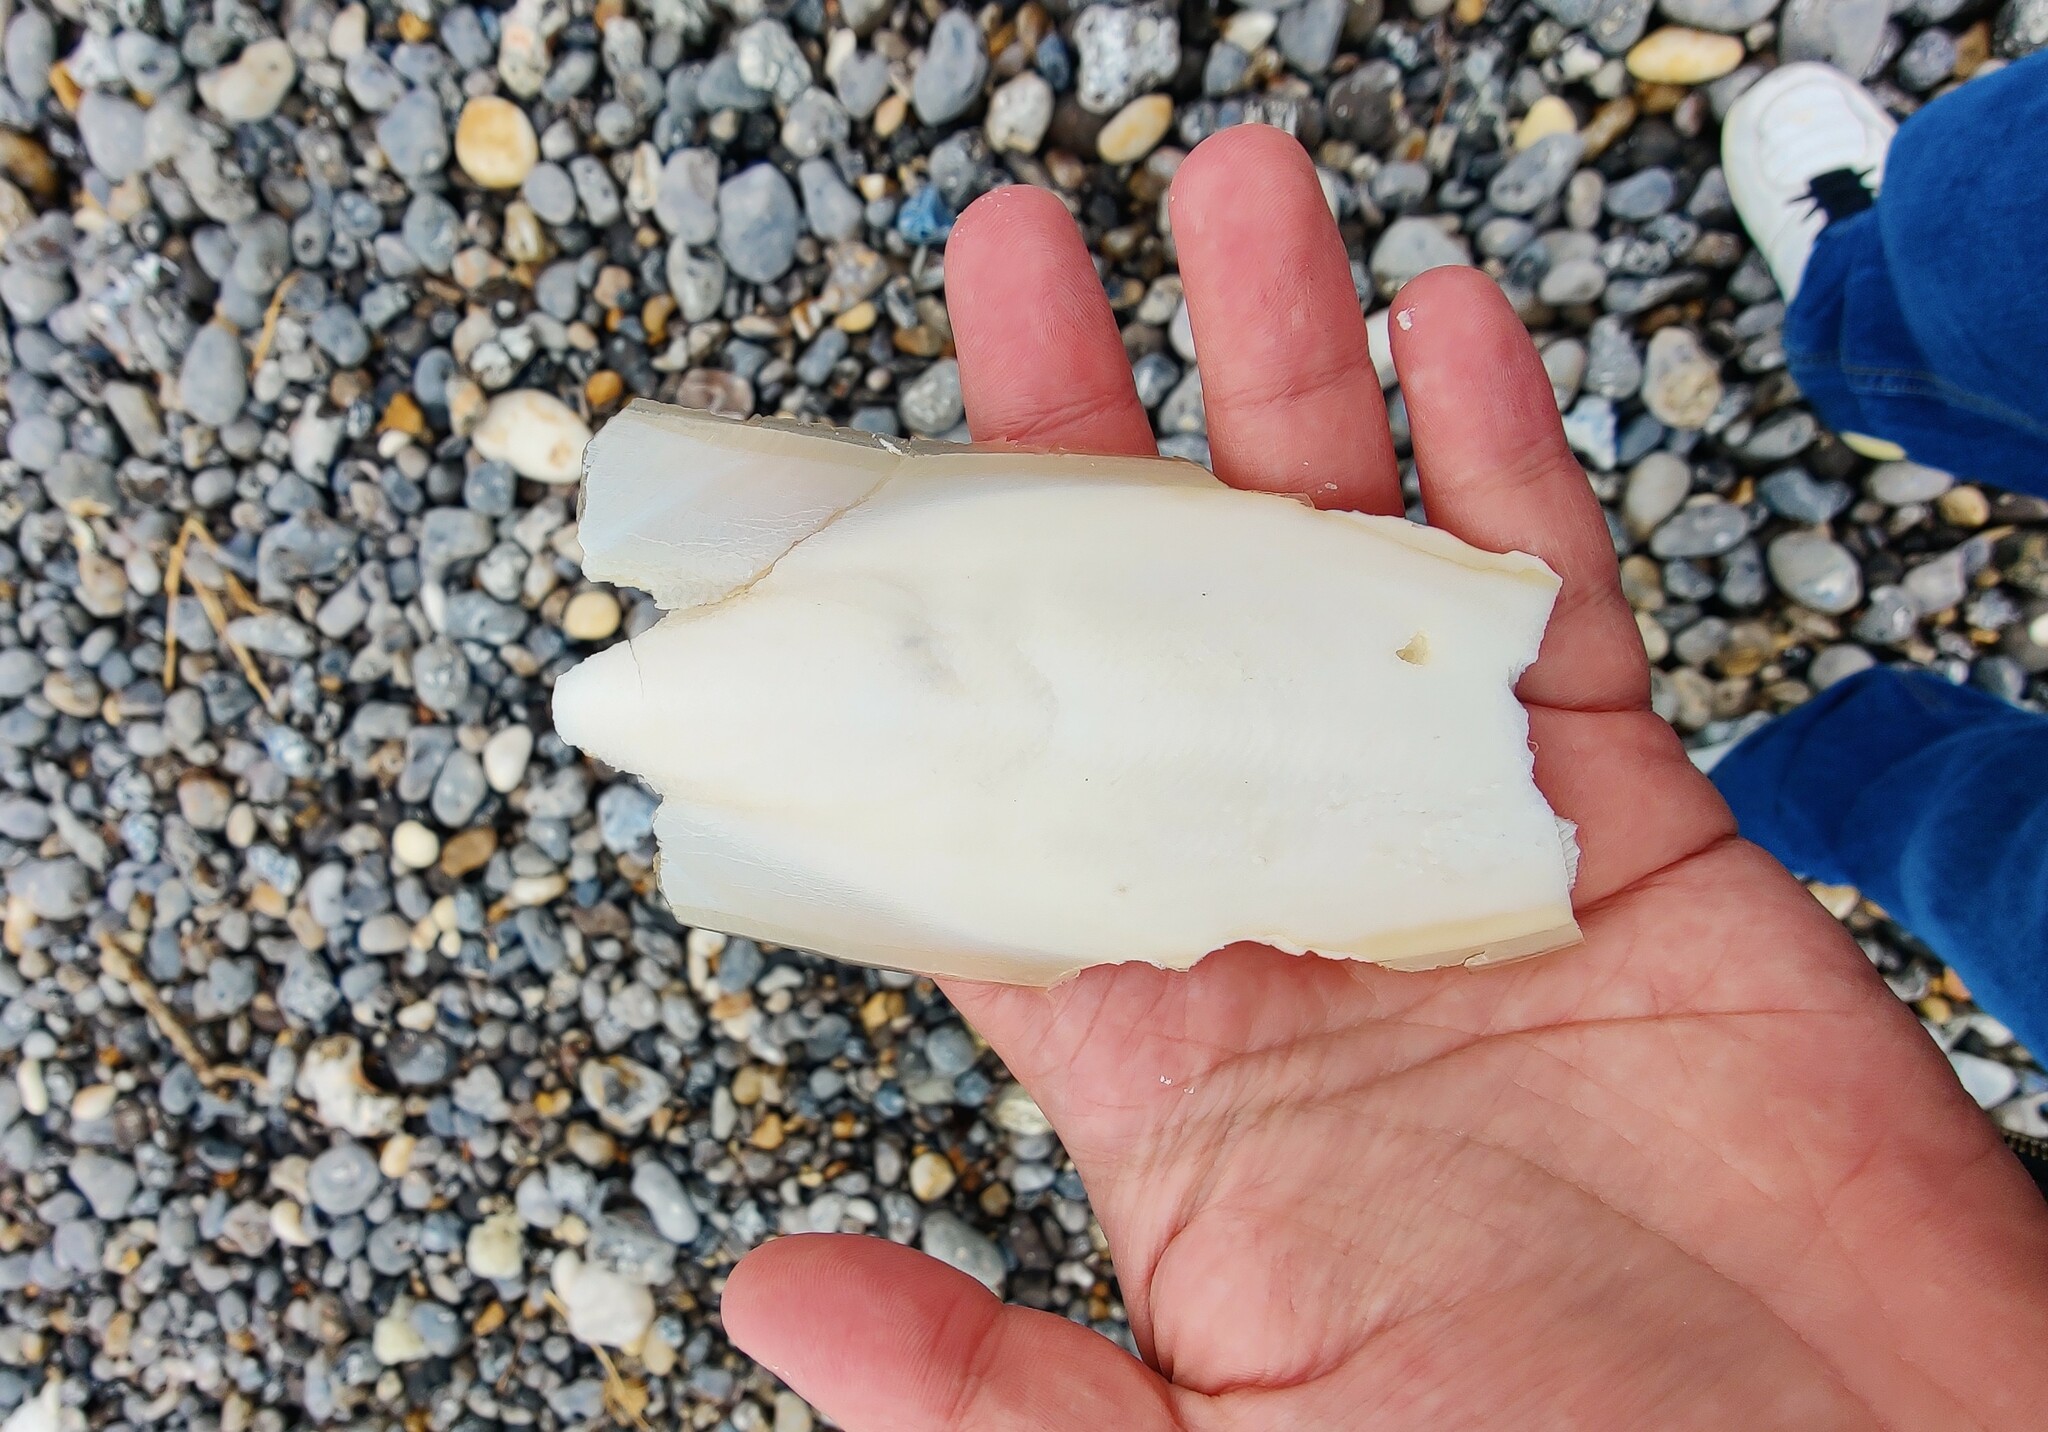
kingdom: Animalia
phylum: Mollusca
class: Cephalopoda
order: Sepiida
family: Sepiidae
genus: Sepia
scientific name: Sepia officinalis
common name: Common cuttlefish
